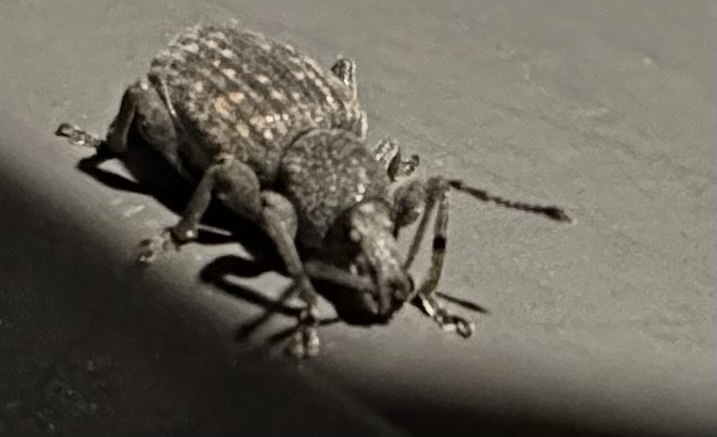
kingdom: Animalia
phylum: Arthropoda
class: Insecta
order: Coleoptera
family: Curculionidae
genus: Otiorhynchus
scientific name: Otiorhynchus sulcatus
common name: Black vine weevil
